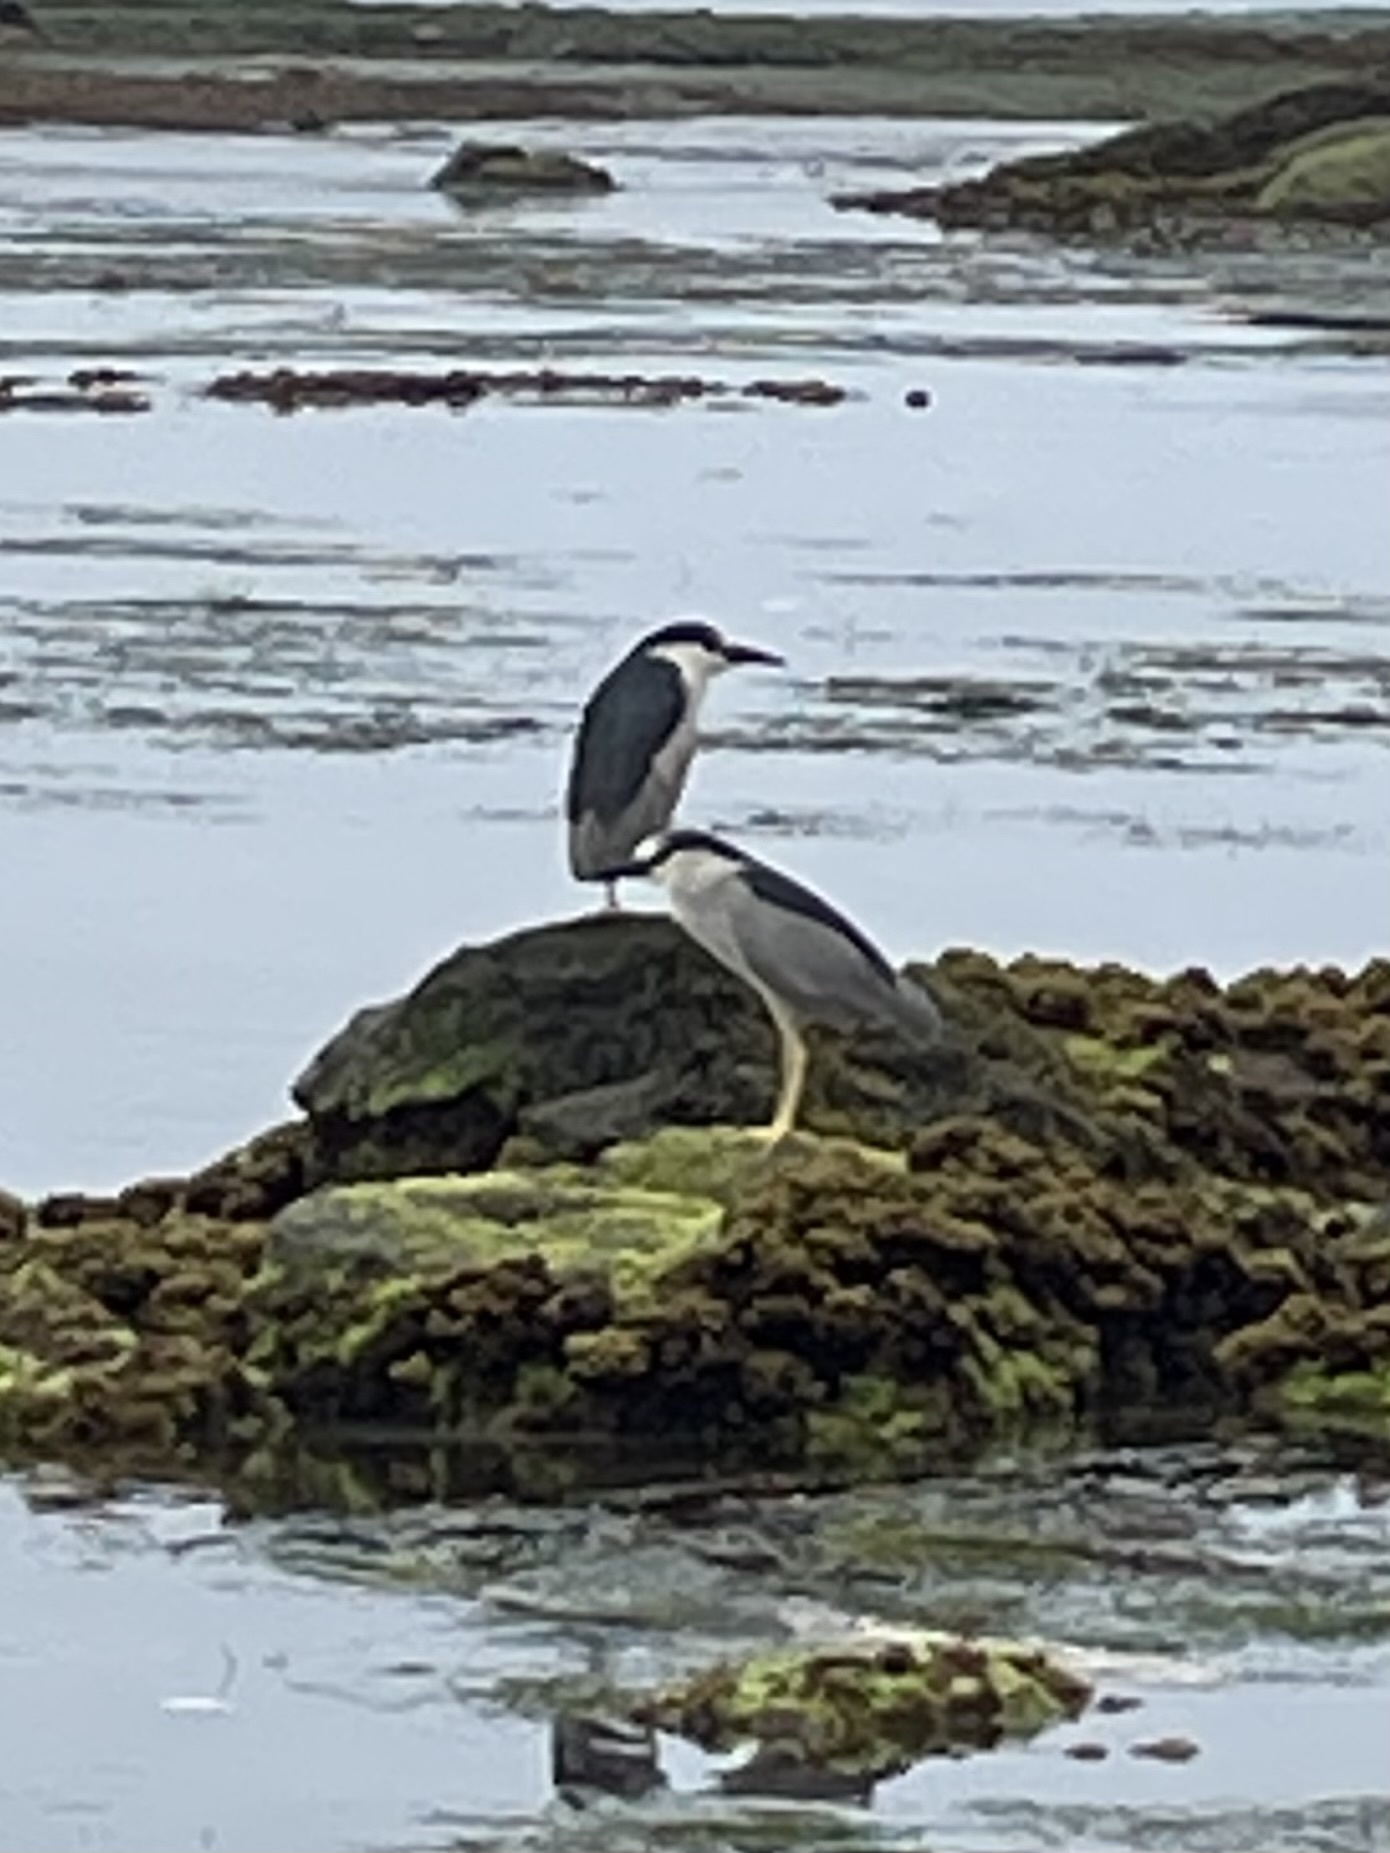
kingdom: Animalia
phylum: Chordata
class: Aves
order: Pelecaniformes
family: Ardeidae
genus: Nycticorax
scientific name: Nycticorax nycticorax
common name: Black-crowned night heron
